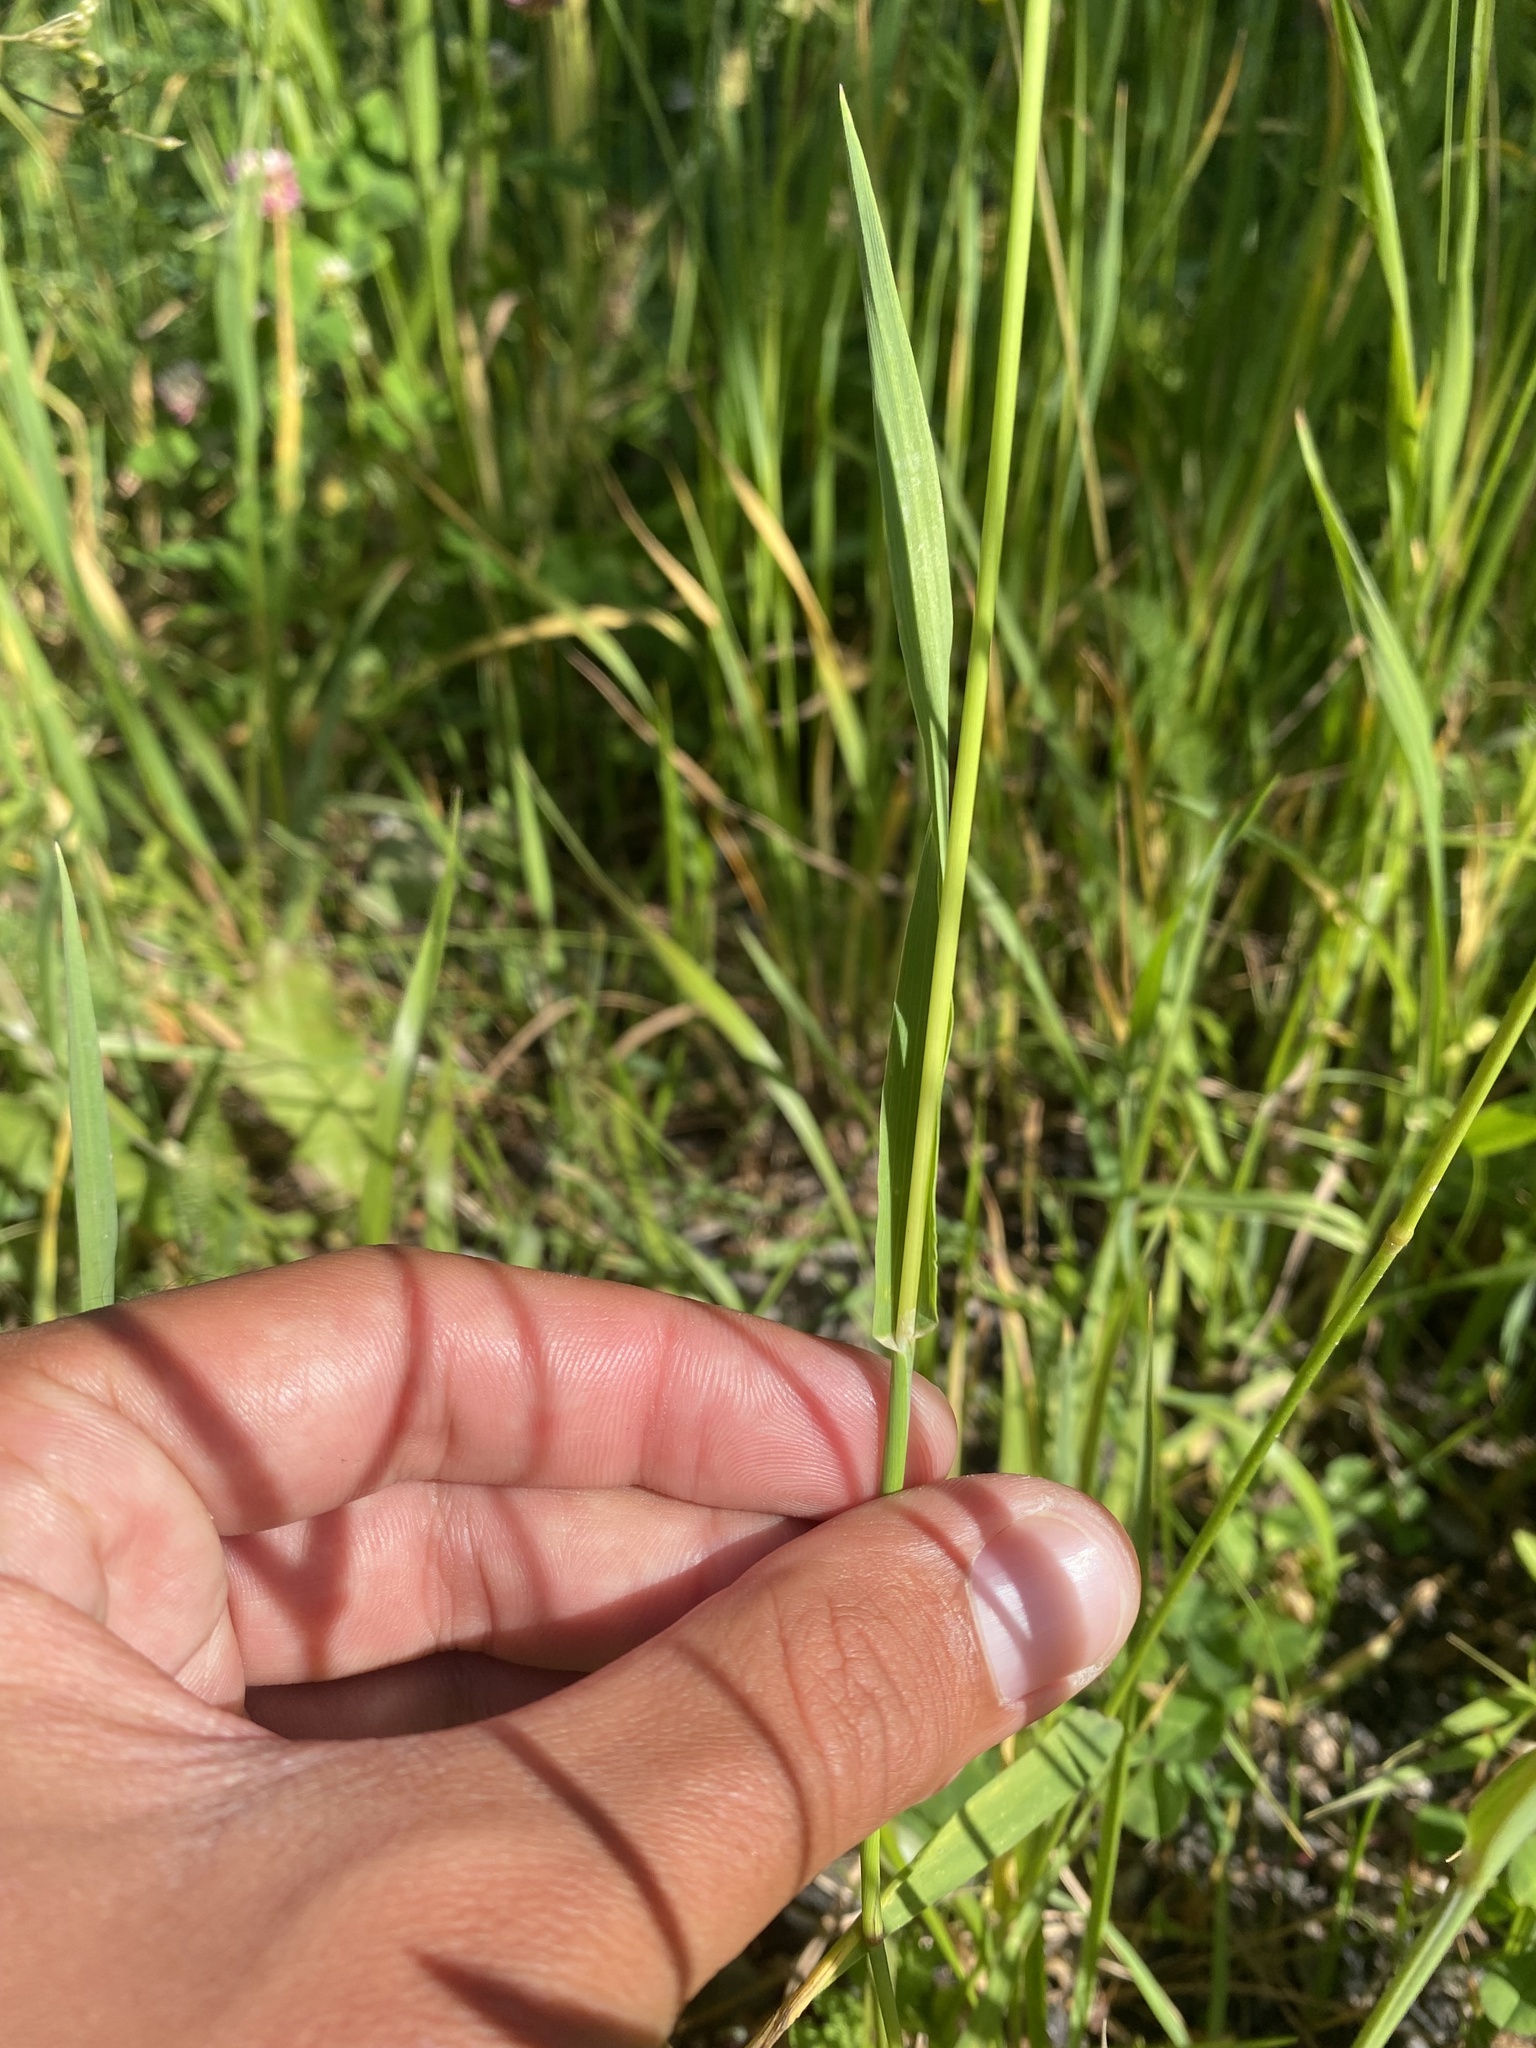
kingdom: Plantae
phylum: Tracheophyta
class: Liliopsida
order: Poales
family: Poaceae
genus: Phleum
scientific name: Phleum pratense
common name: Timothy grass
